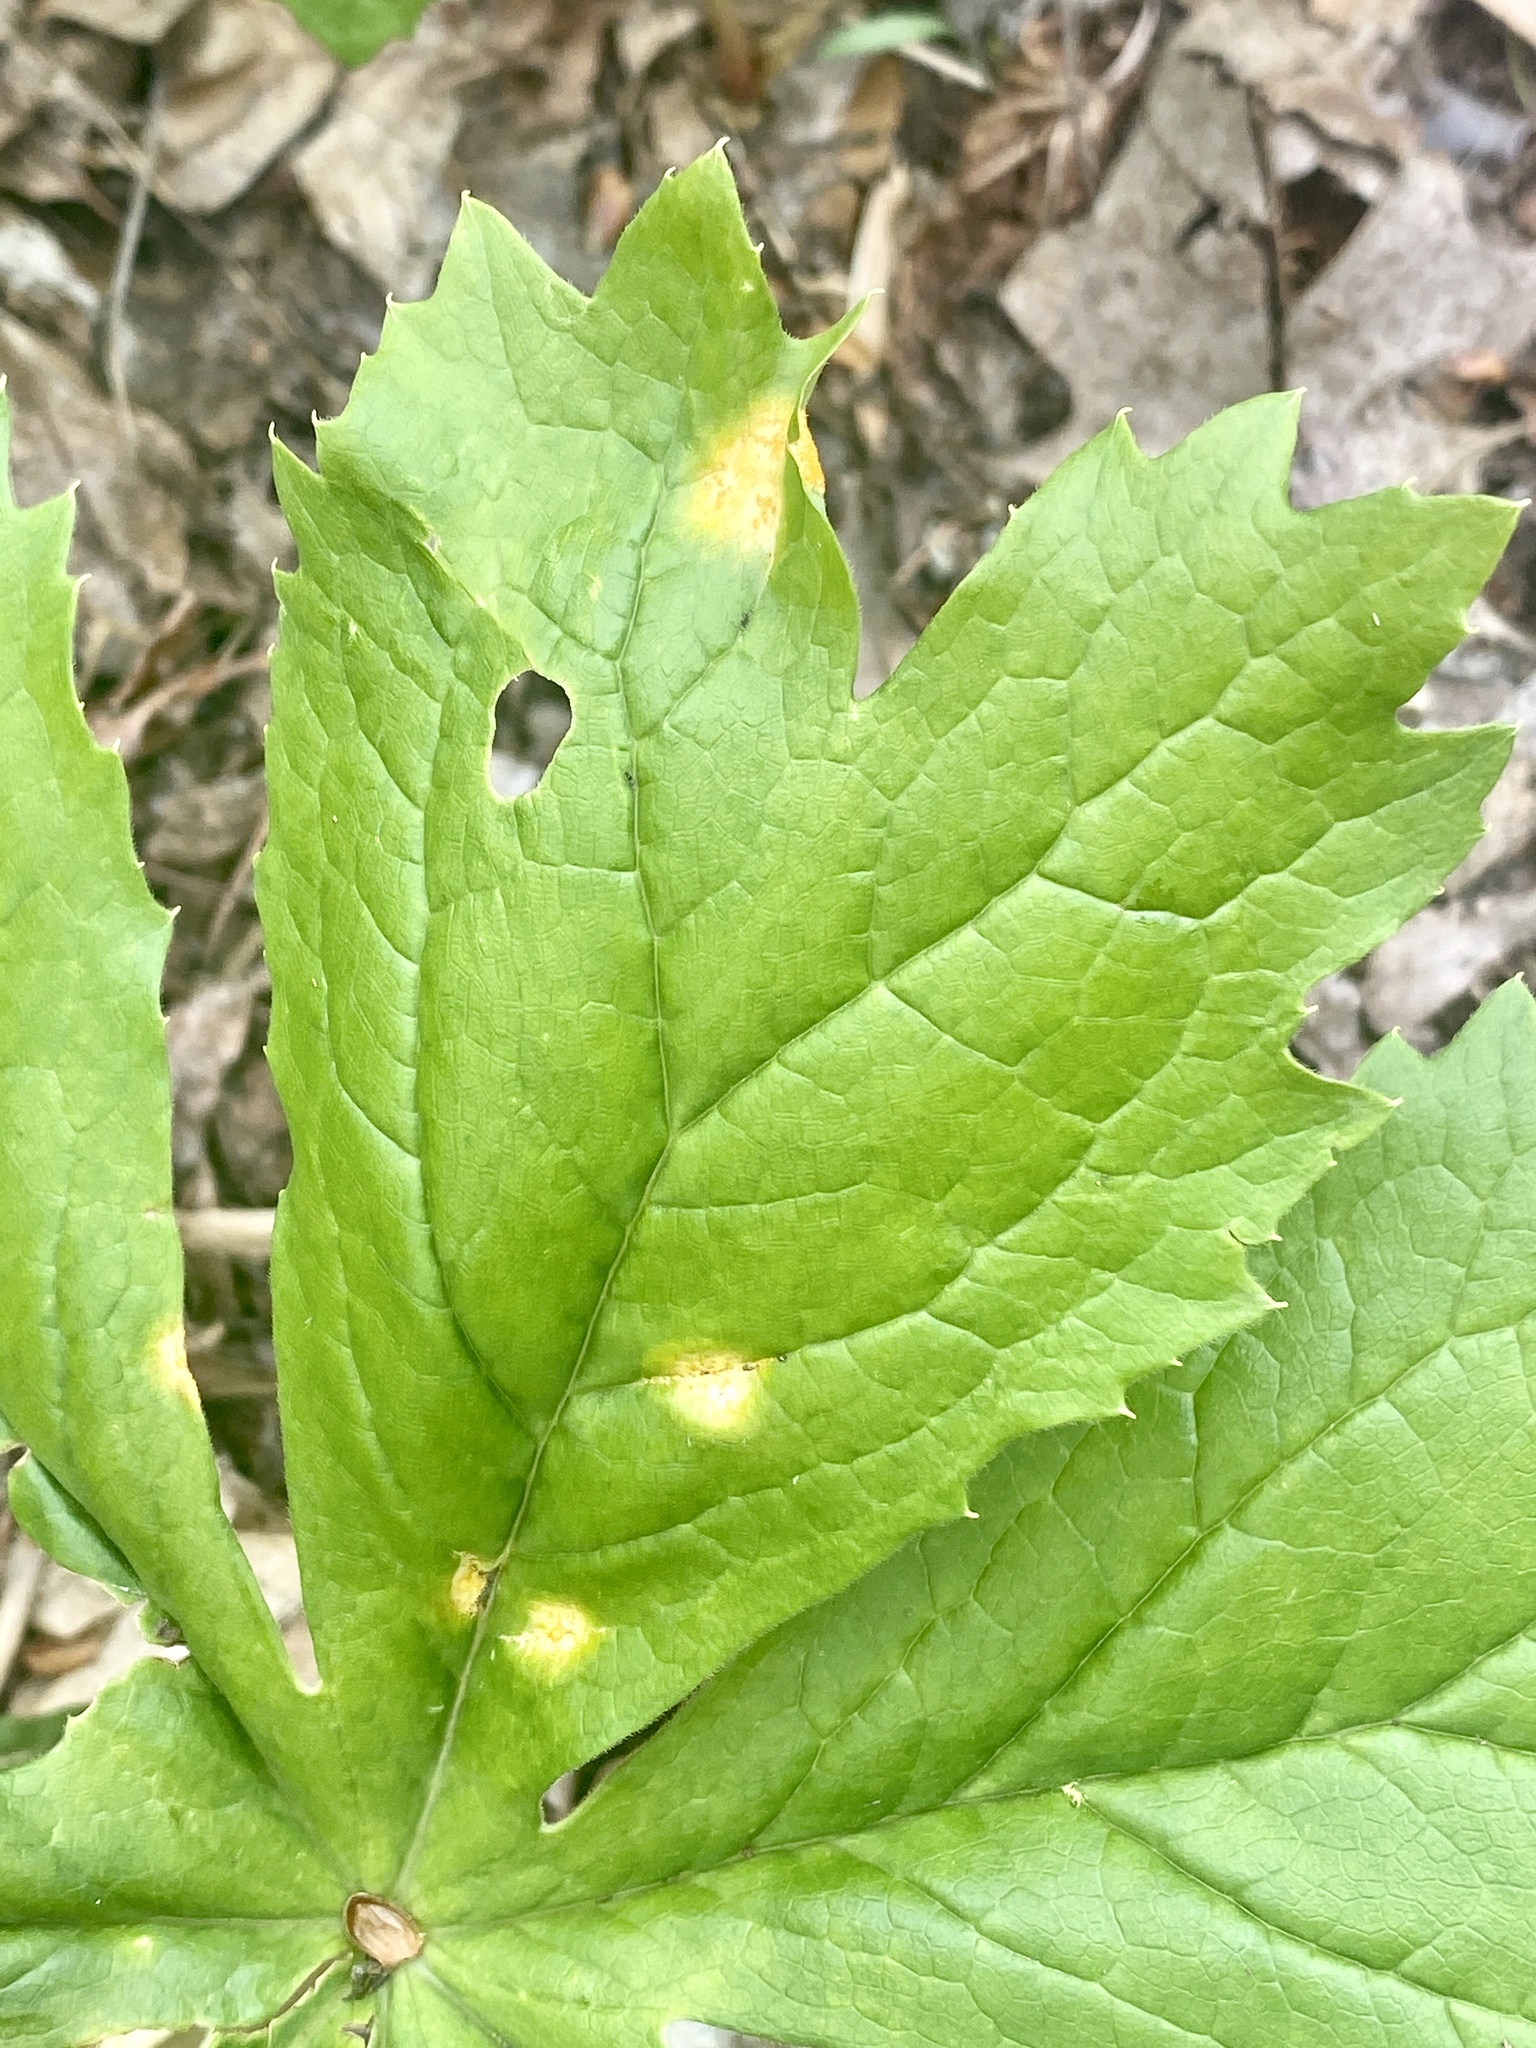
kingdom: Fungi
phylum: Basidiomycota
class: Pucciniomycetes
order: Pucciniales
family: Pucciniaceae
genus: Puccinia
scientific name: Puccinia podophylli
